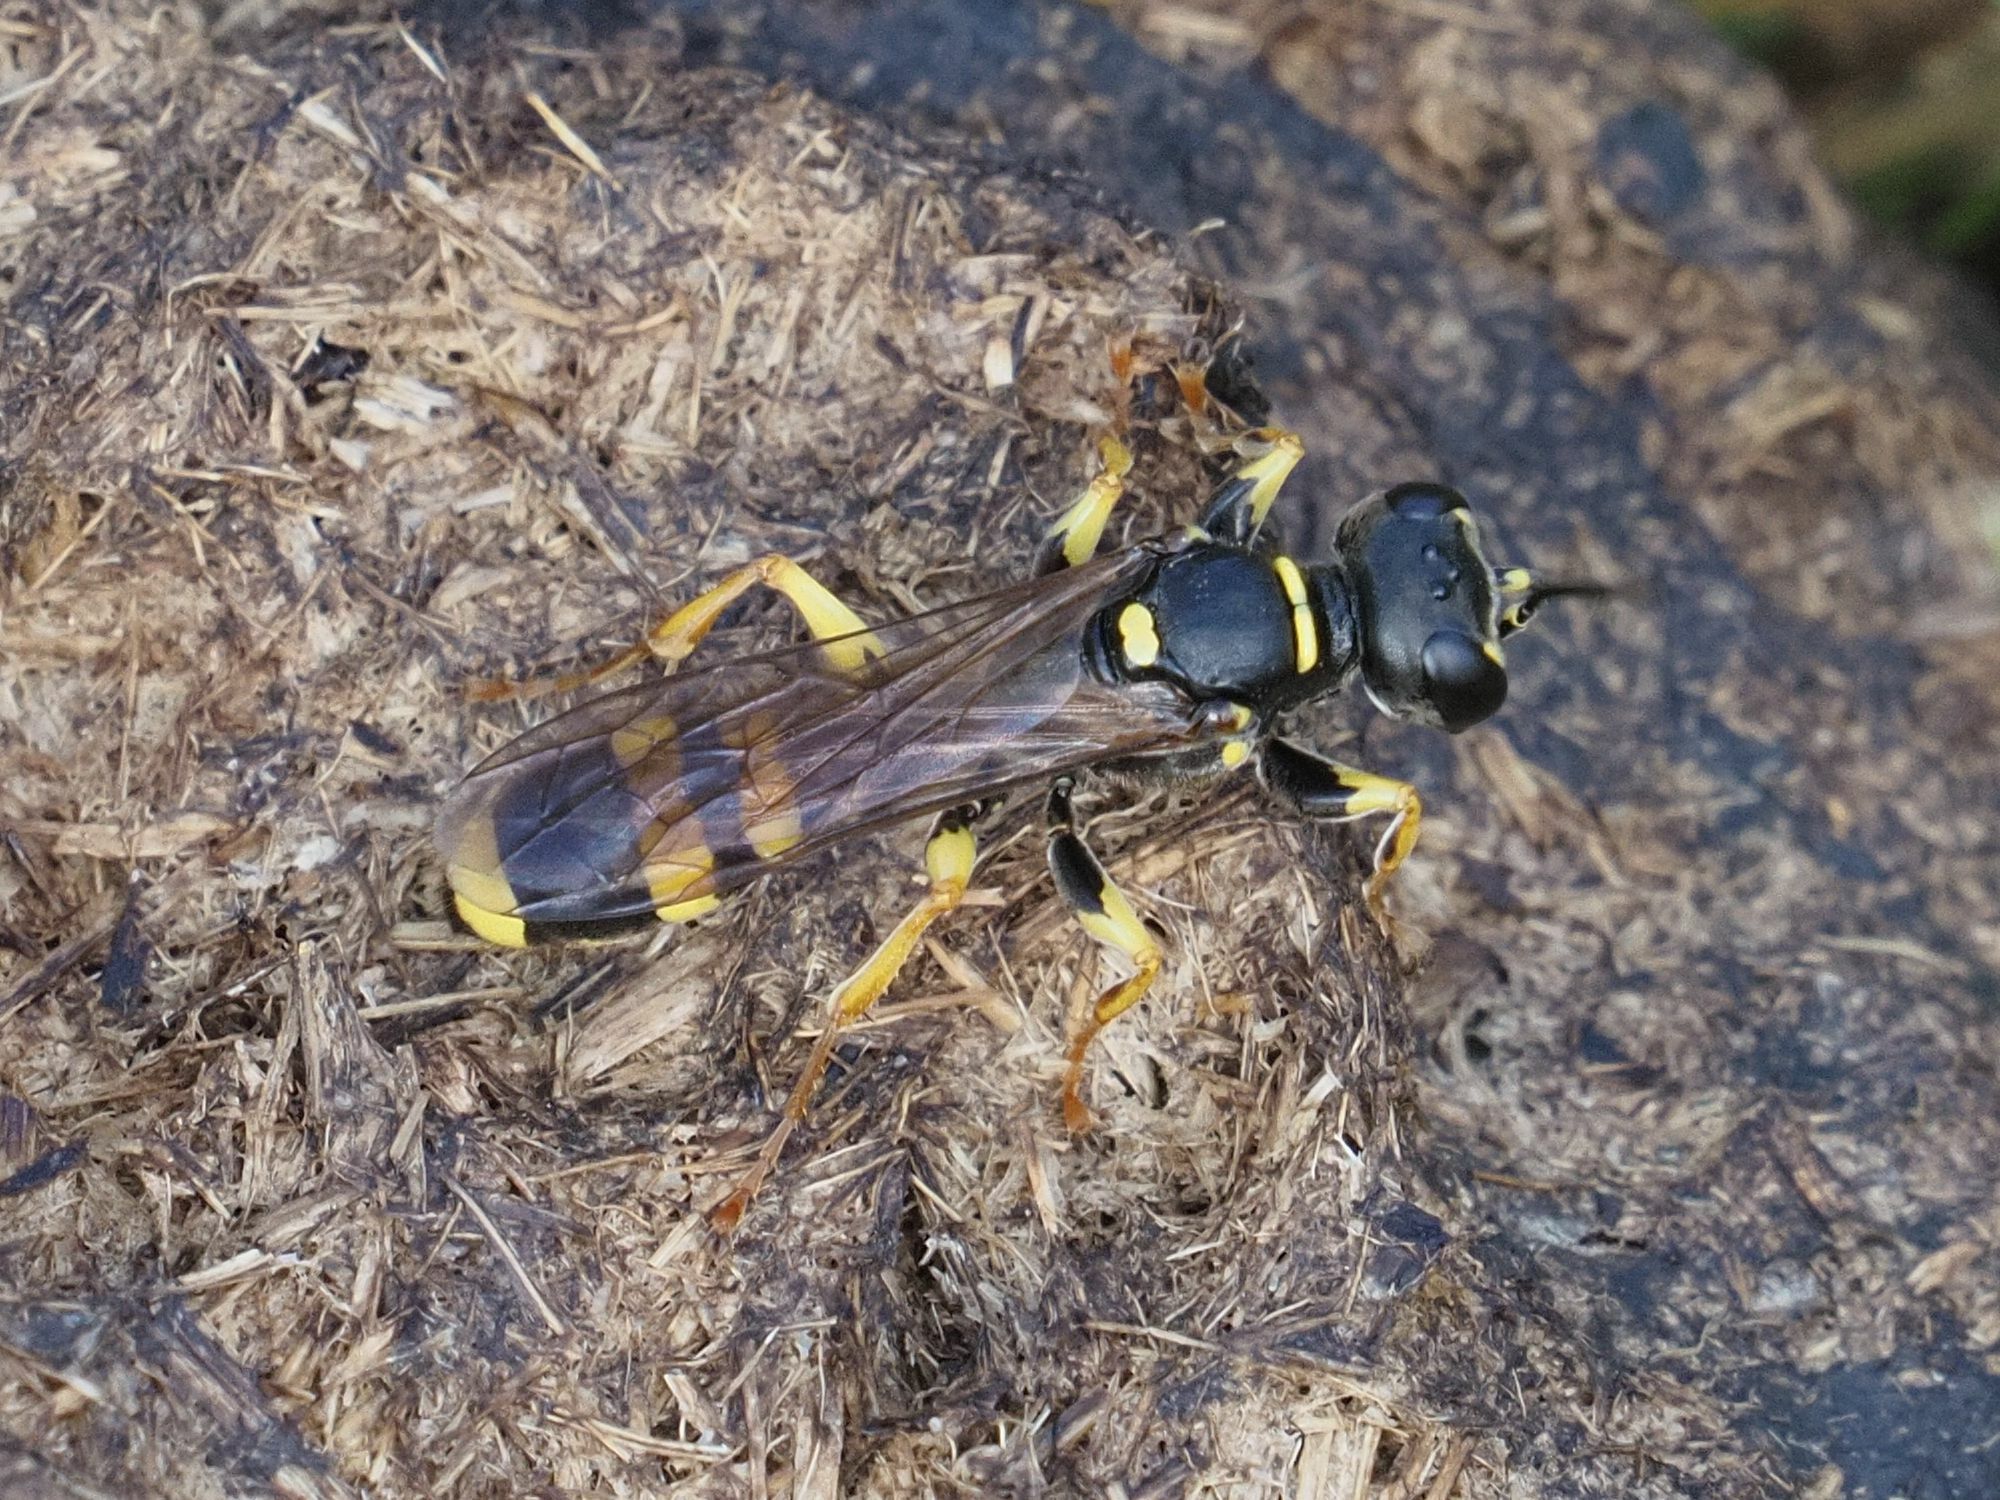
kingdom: Animalia
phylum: Arthropoda
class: Insecta
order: Hymenoptera
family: Crabronidae
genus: Mellinus
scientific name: Mellinus arvensis
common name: Field digger wasp
